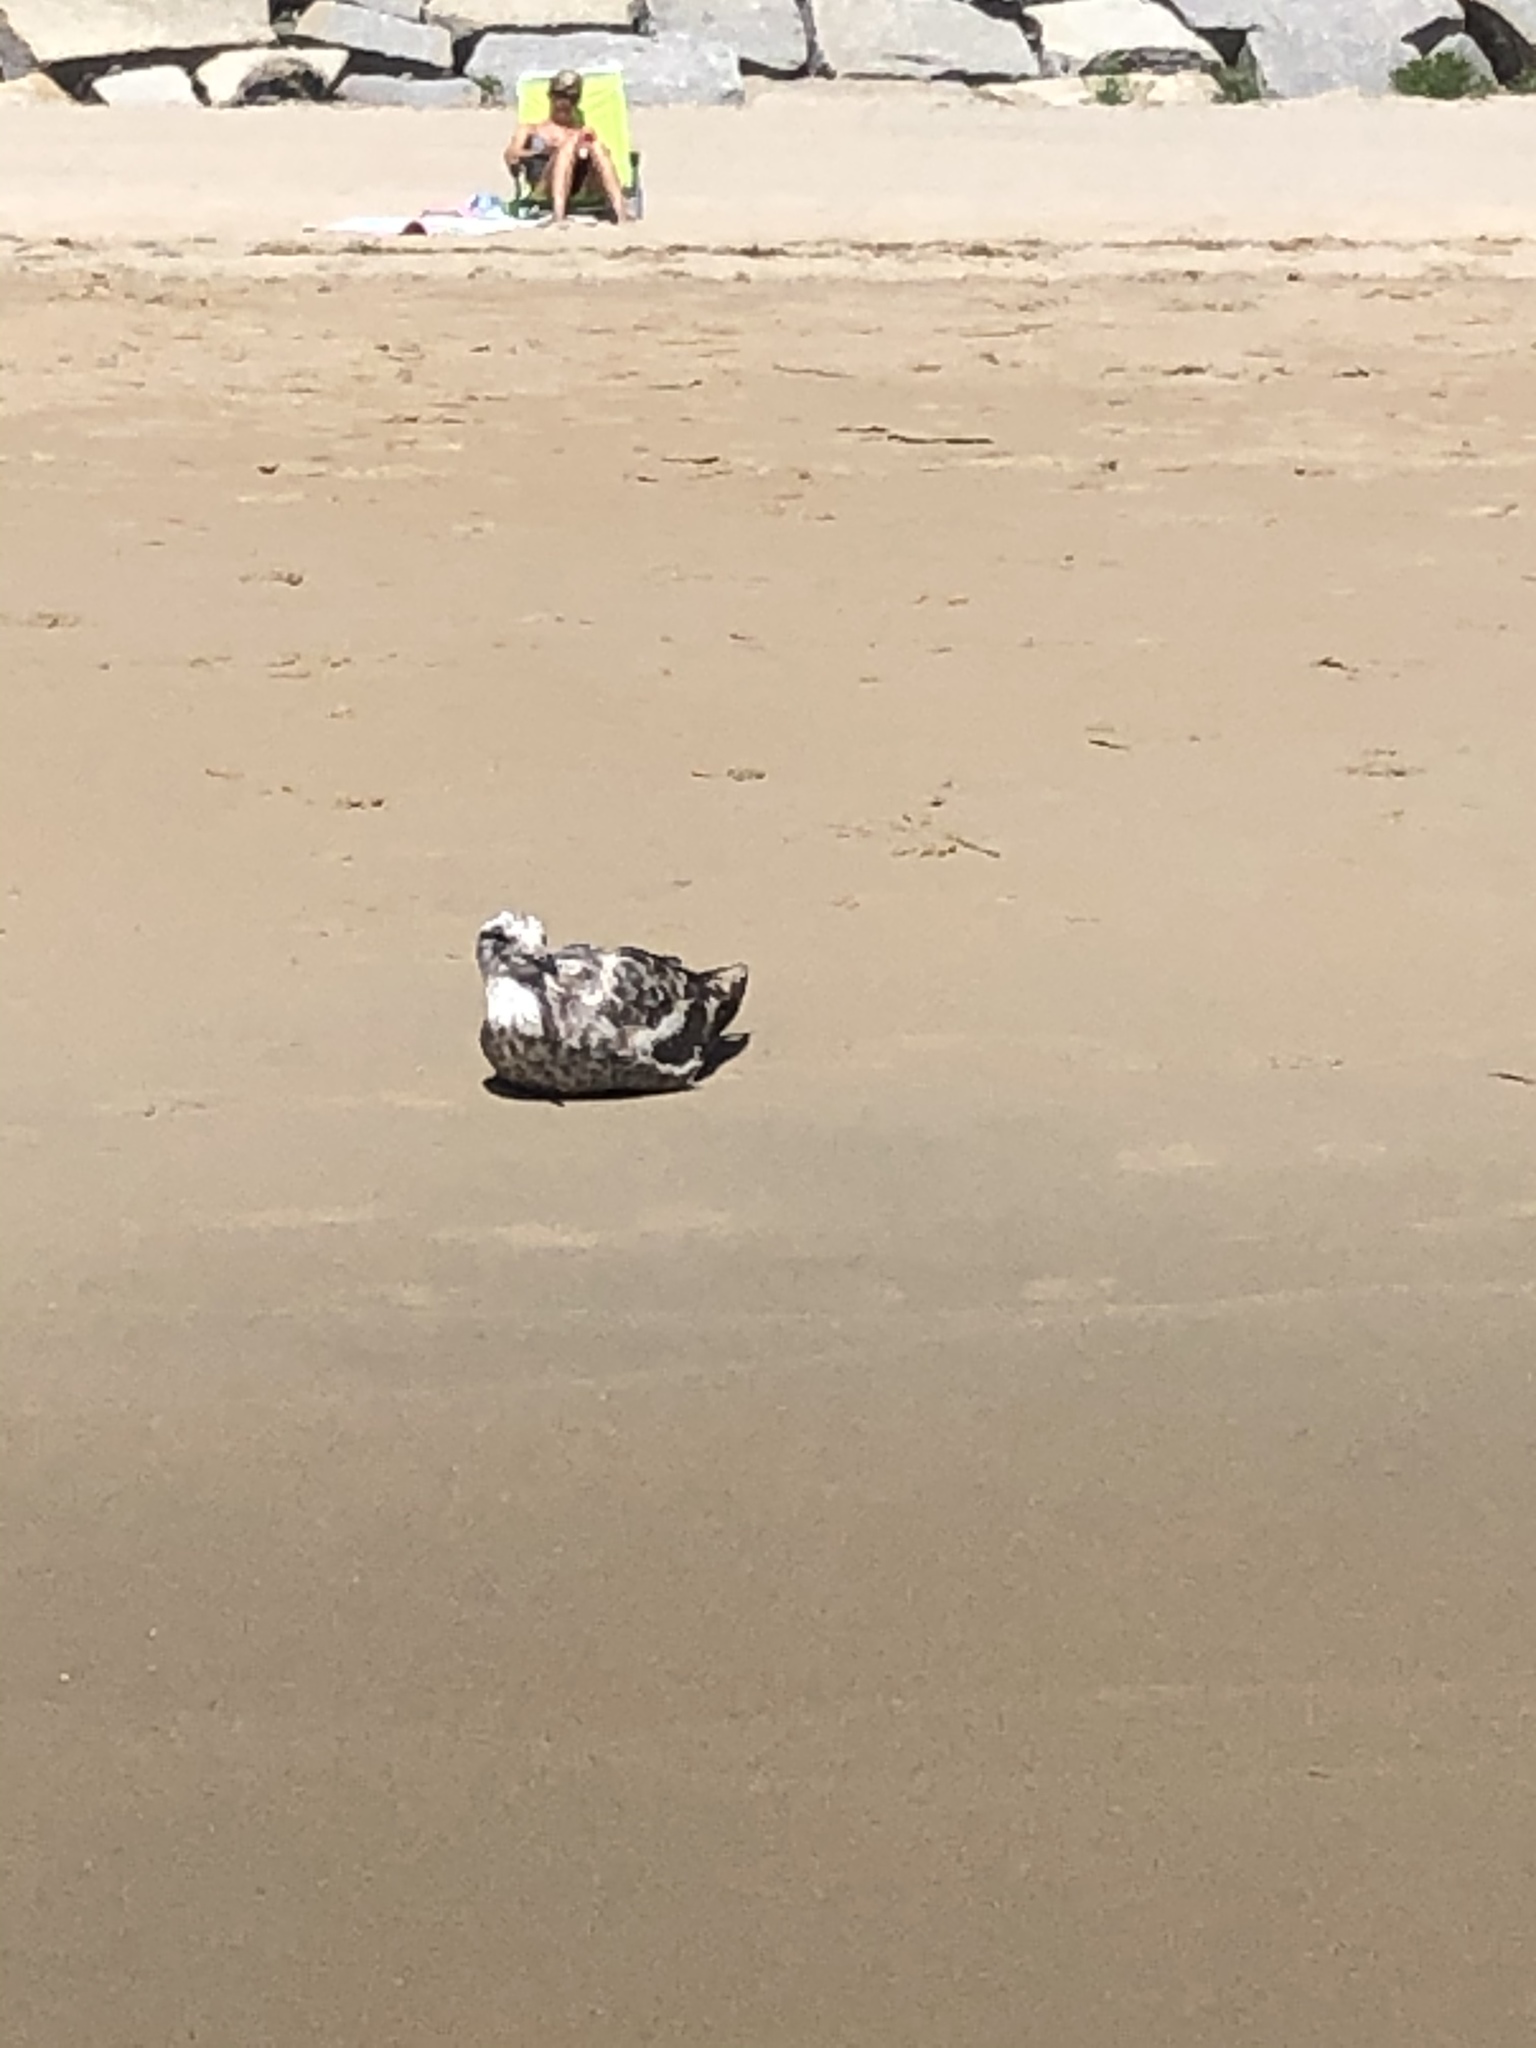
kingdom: Animalia
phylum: Chordata
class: Aves
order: Charadriiformes
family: Laridae
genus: Larus
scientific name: Larus marinus
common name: Great black-backed gull
